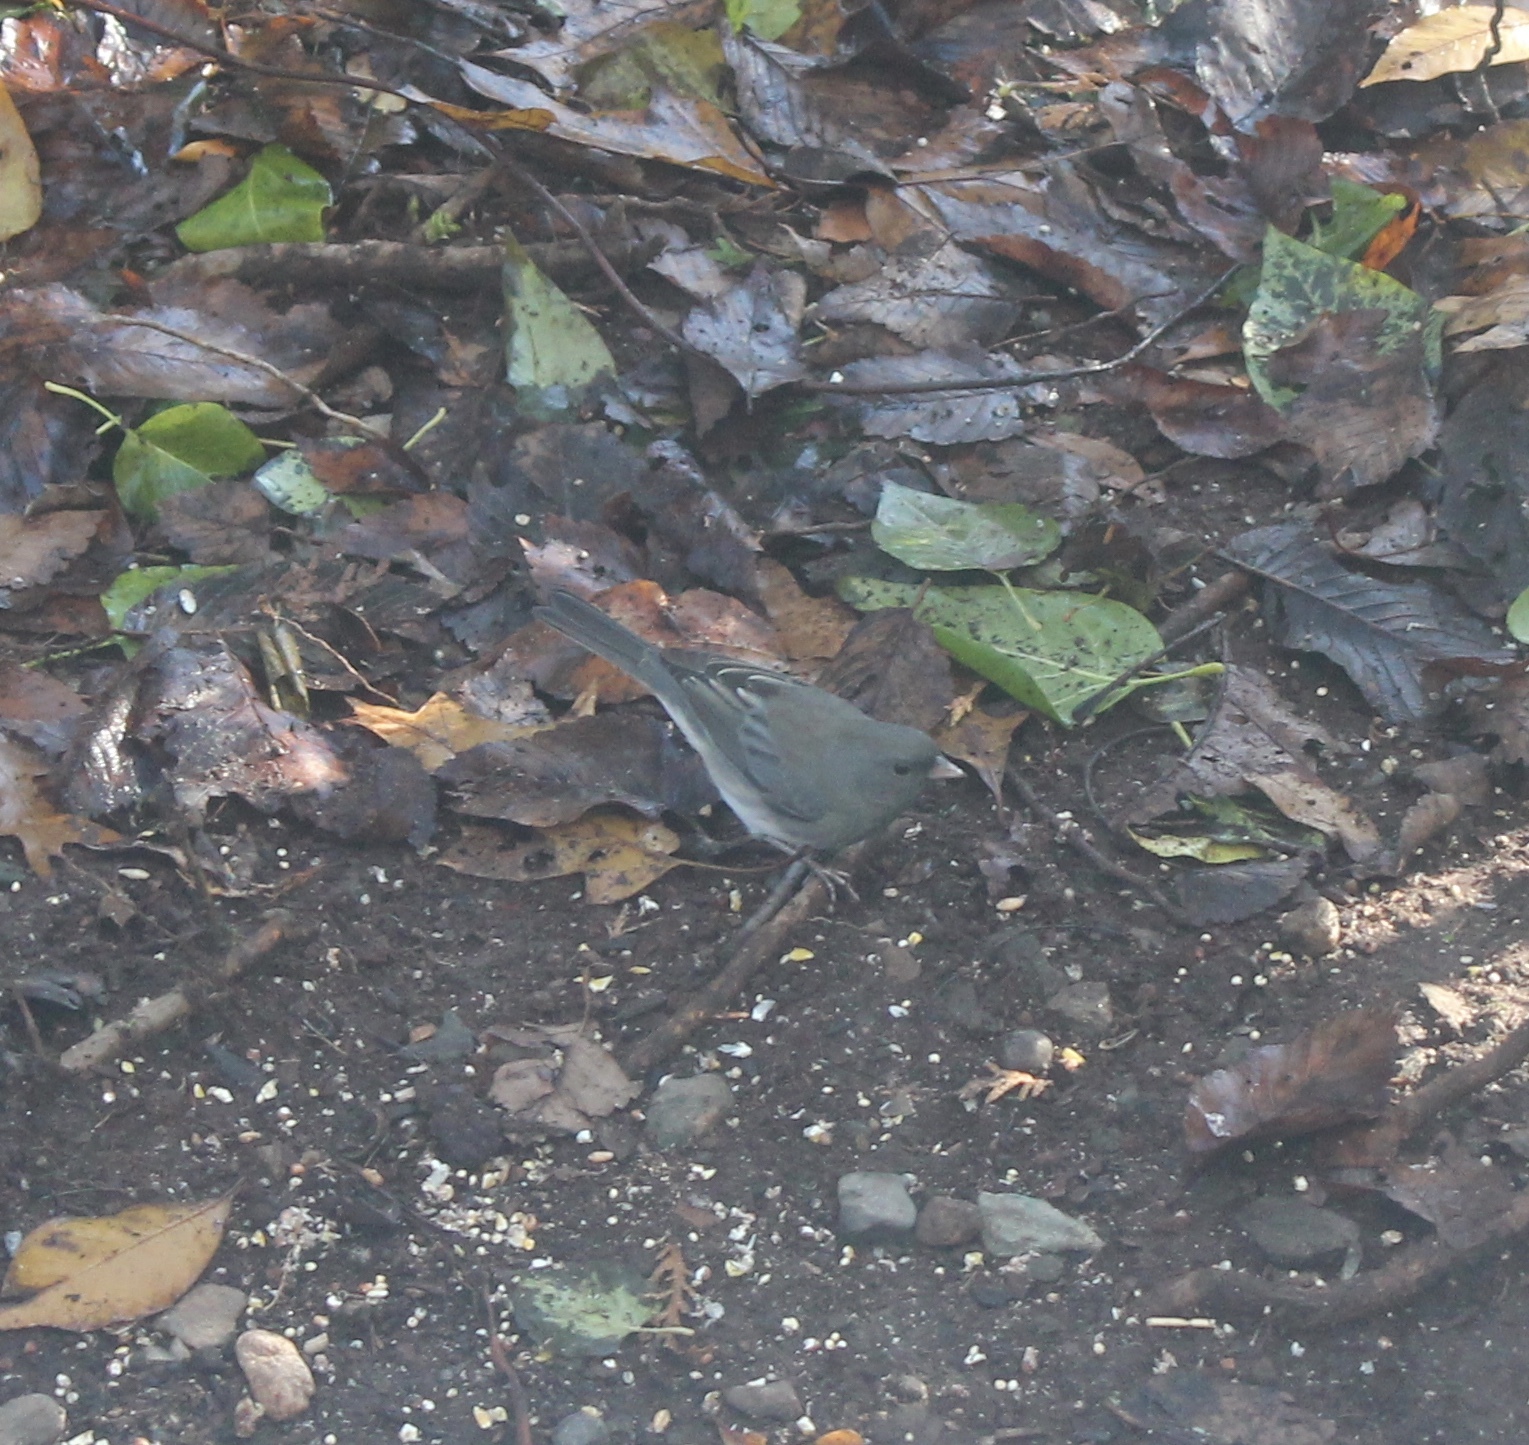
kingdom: Animalia
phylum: Chordata
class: Aves
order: Passeriformes
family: Passerellidae
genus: Junco
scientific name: Junco hyemalis
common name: Dark-eyed junco
